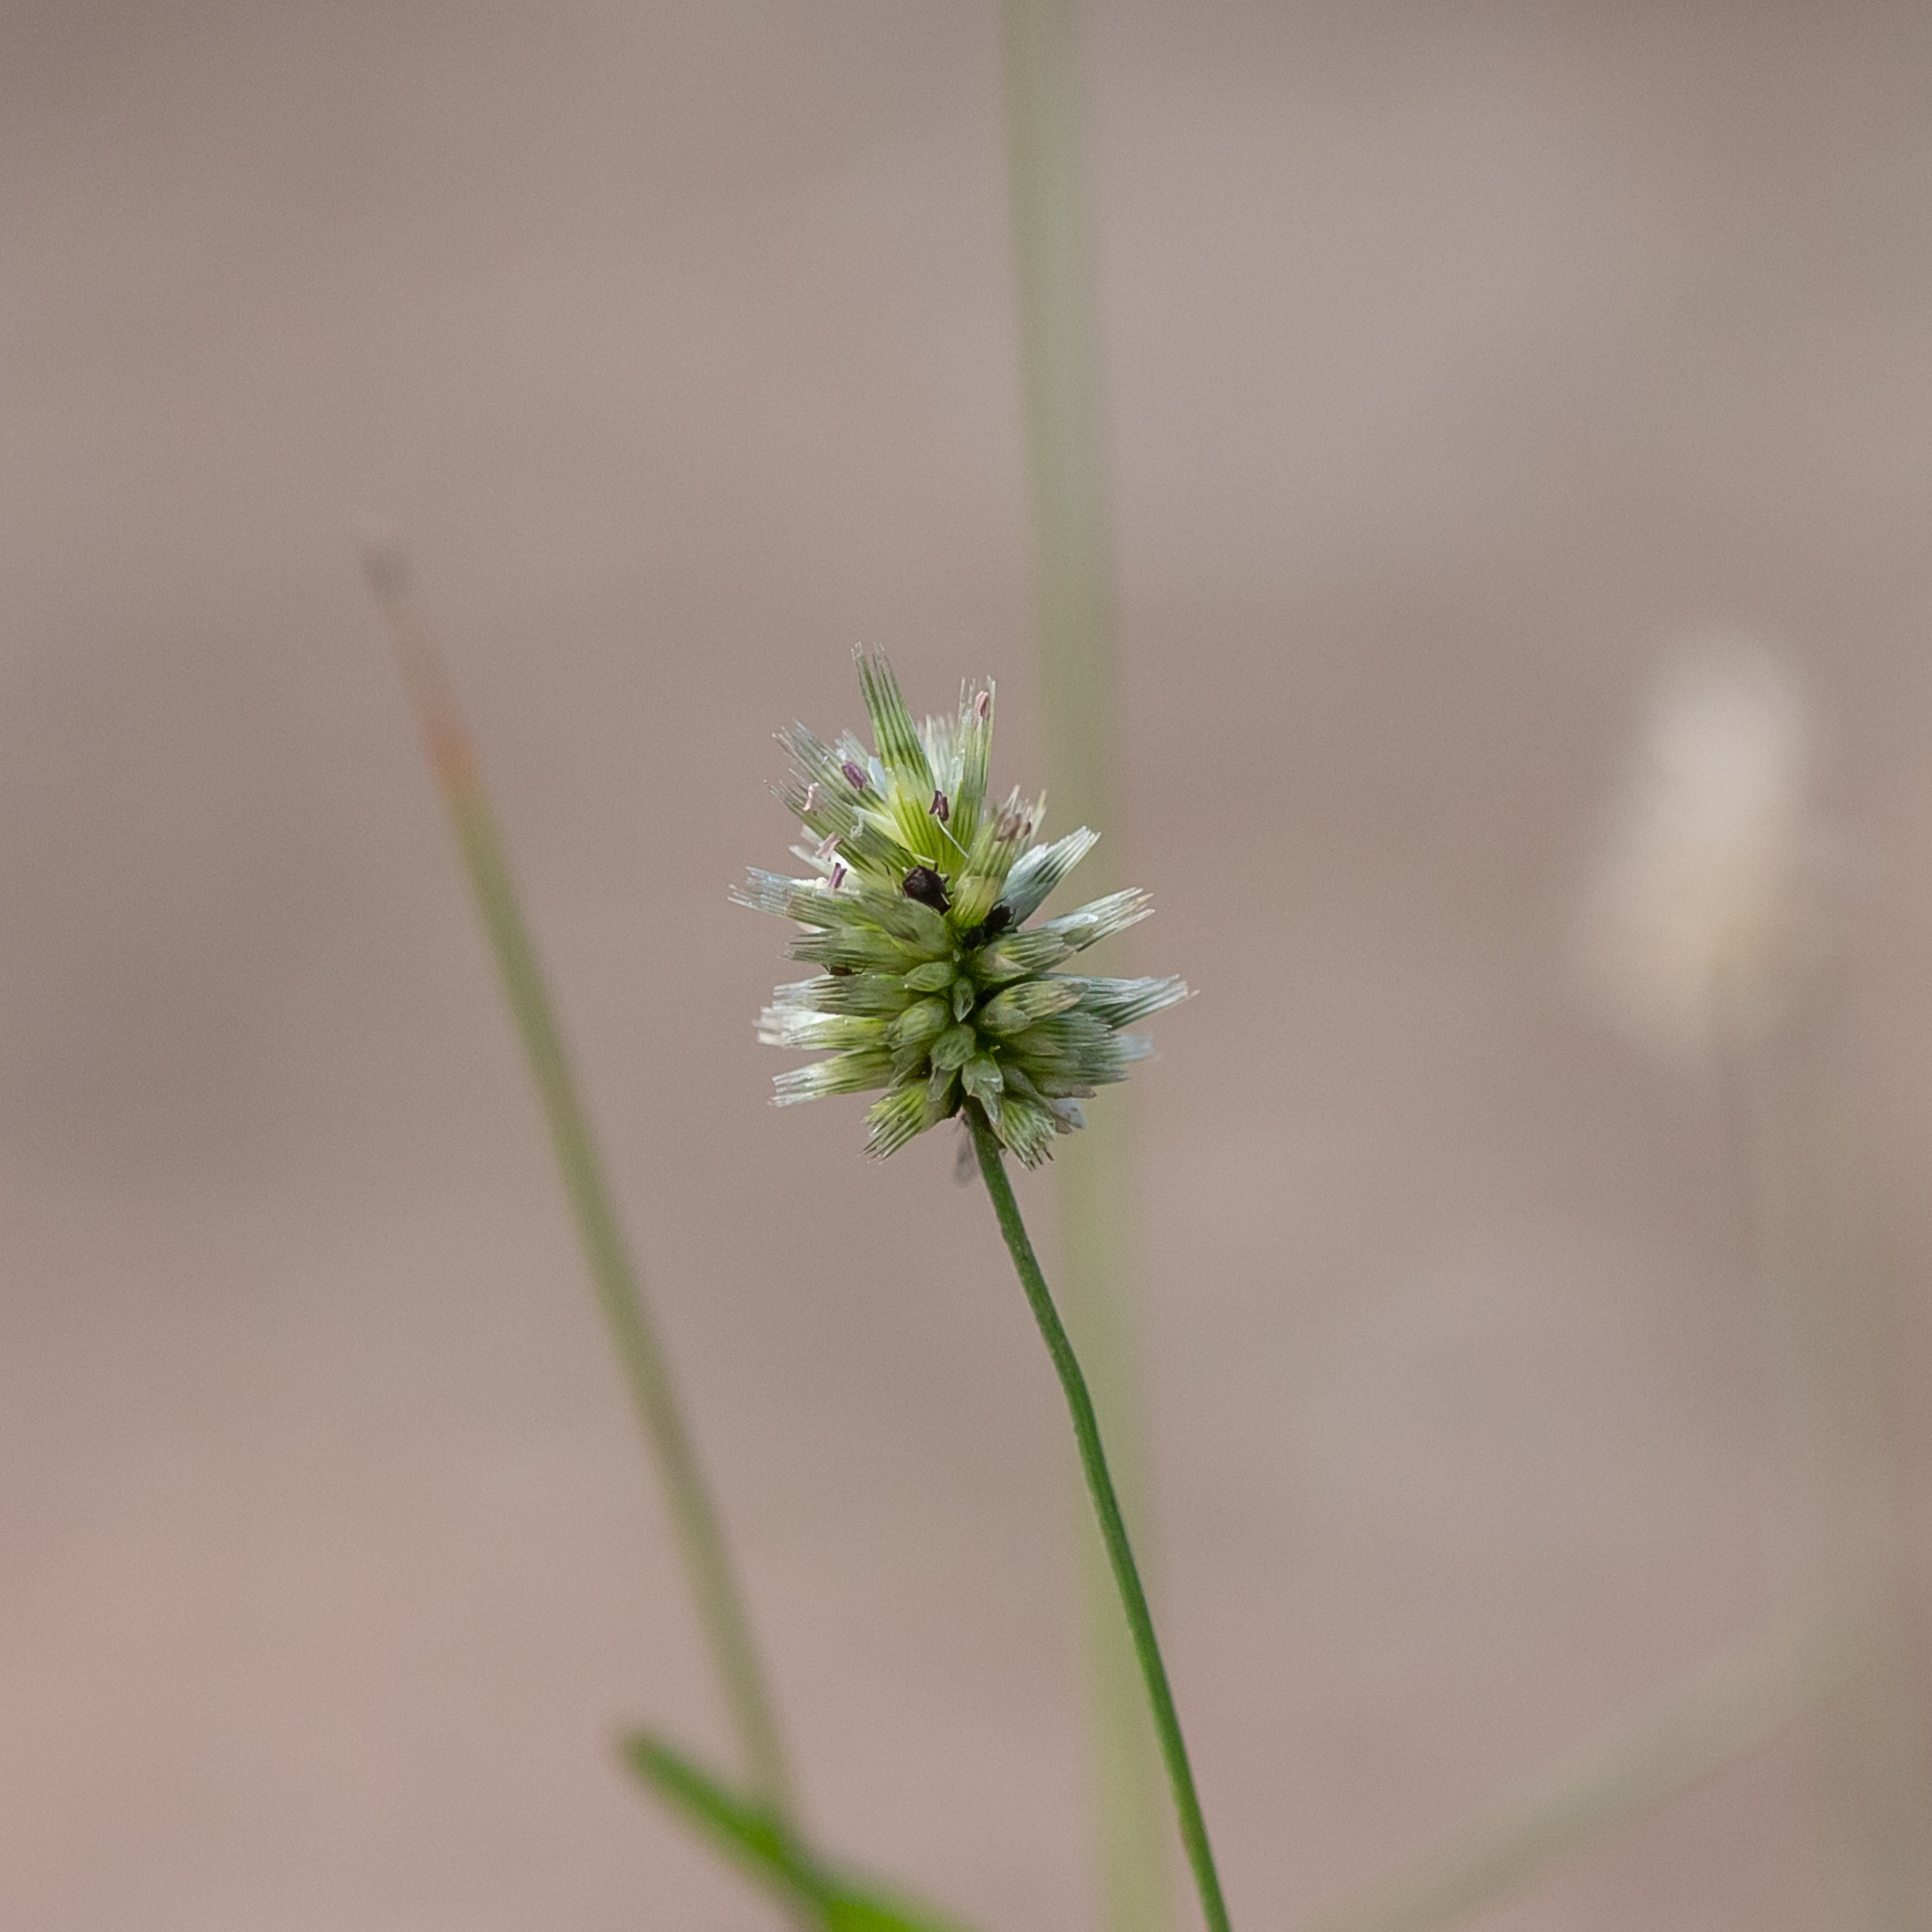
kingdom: Plantae
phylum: Tracheophyta
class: Liliopsida
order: Poales
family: Poaceae
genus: Enneapogon
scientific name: Enneapogon lindleyanus
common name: Conetop nineawn
